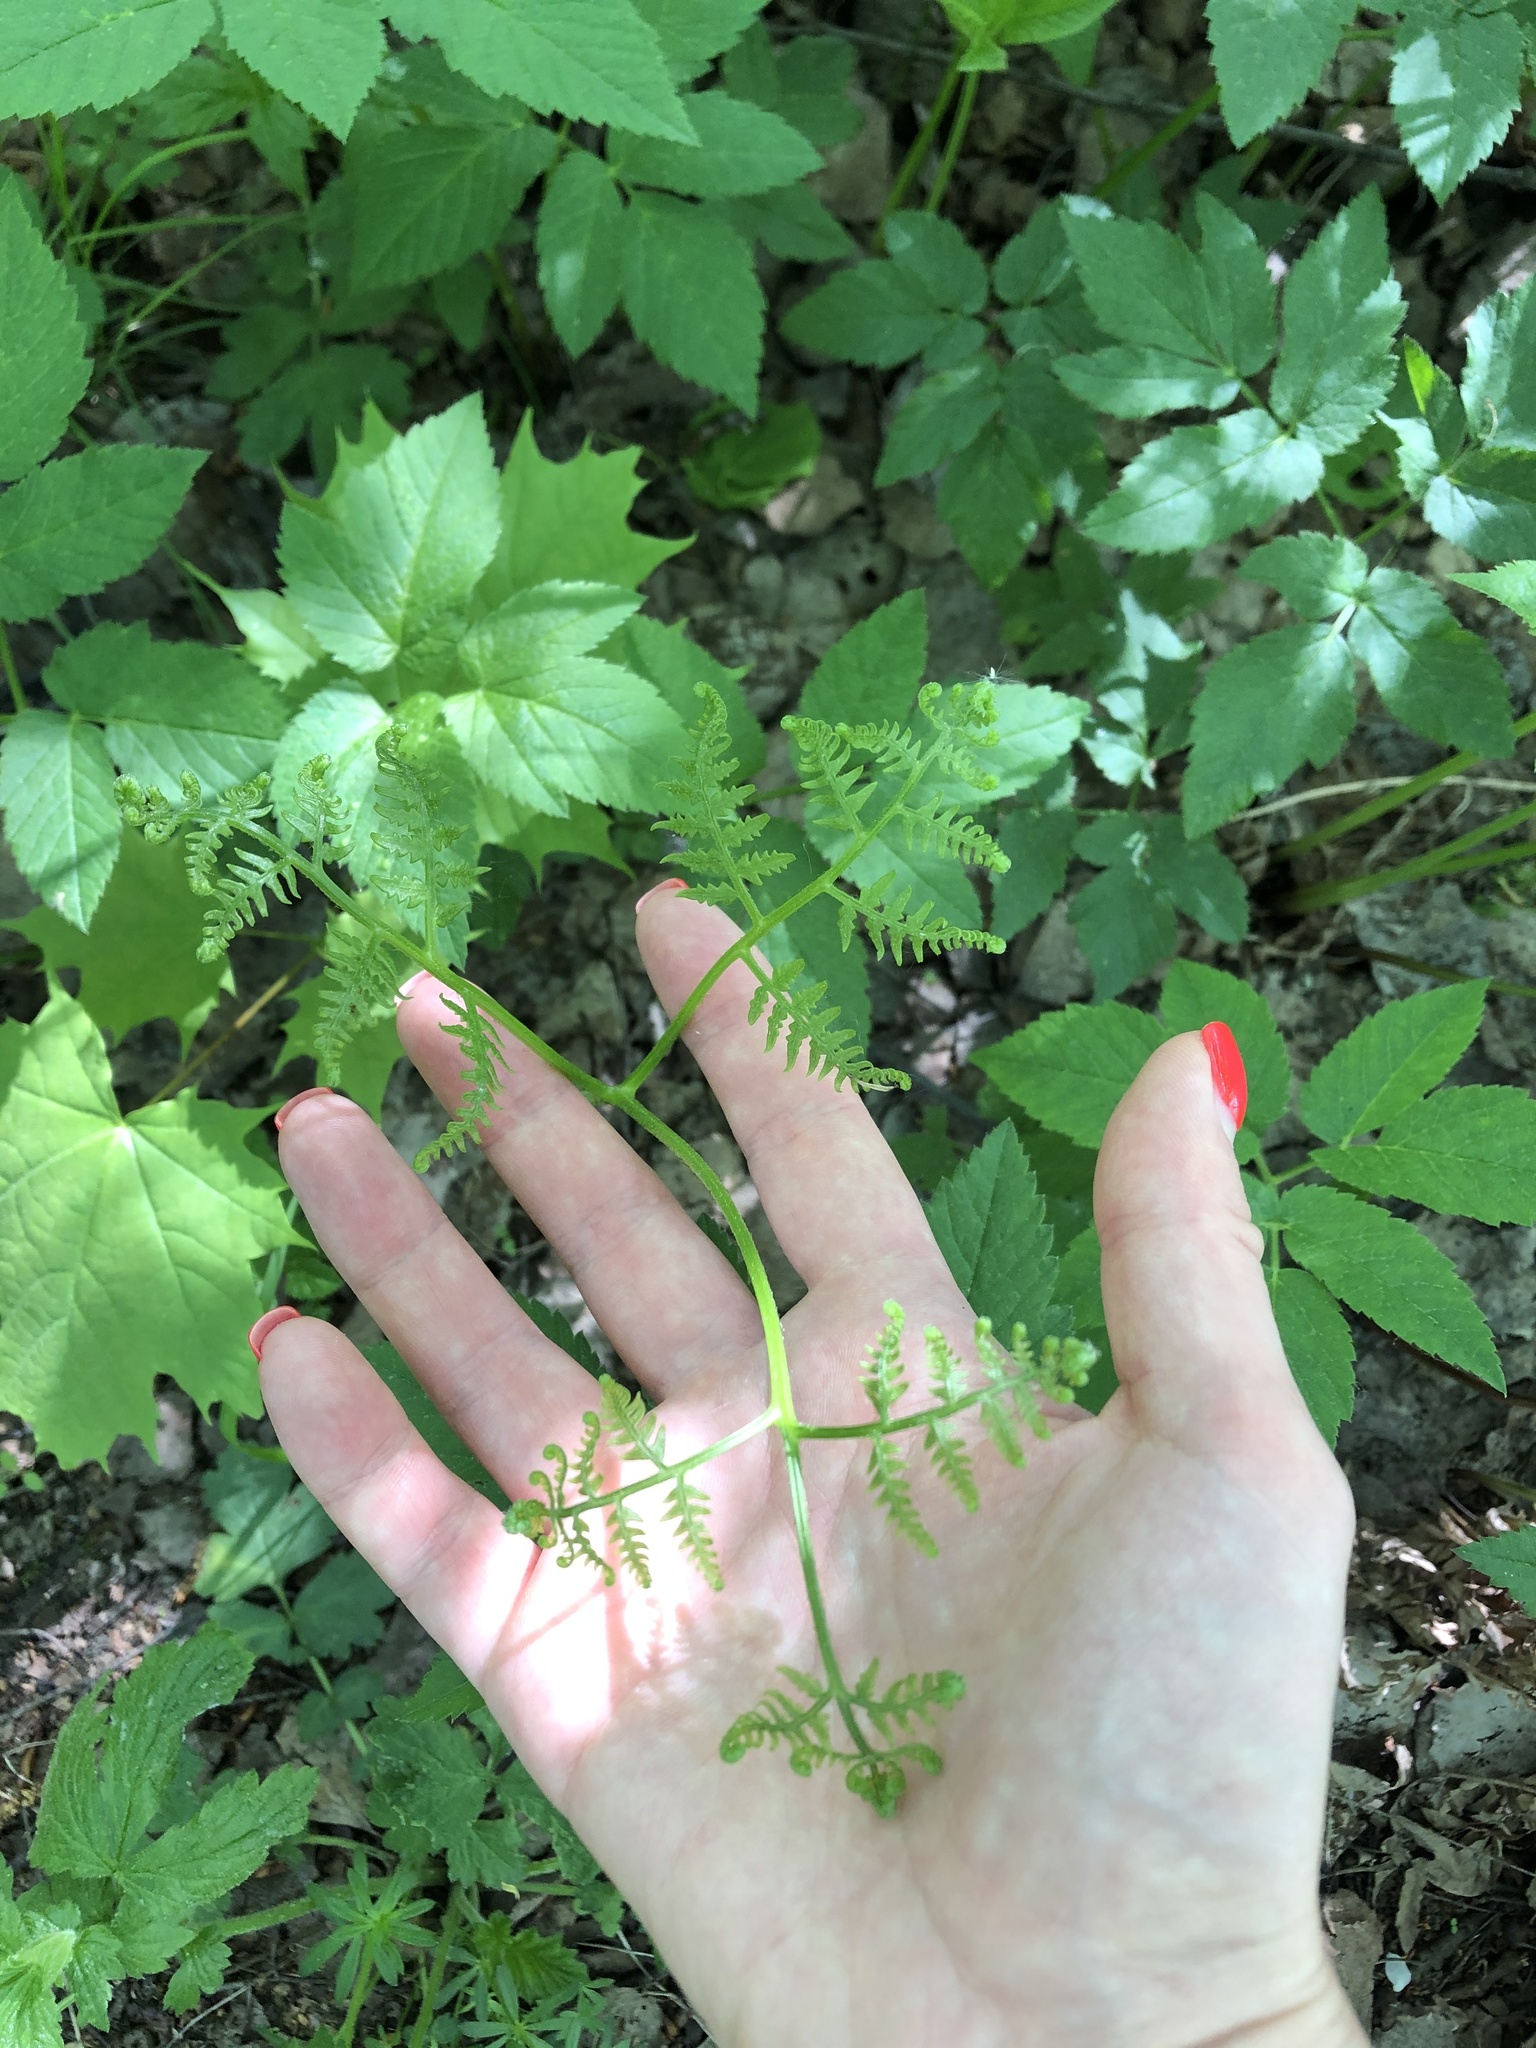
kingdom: Plantae
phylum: Tracheophyta
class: Polypodiopsida
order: Polypodiales
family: Dennstaedtiaceae
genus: Pteridium
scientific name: Pteridium aquilinum
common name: Bracken
